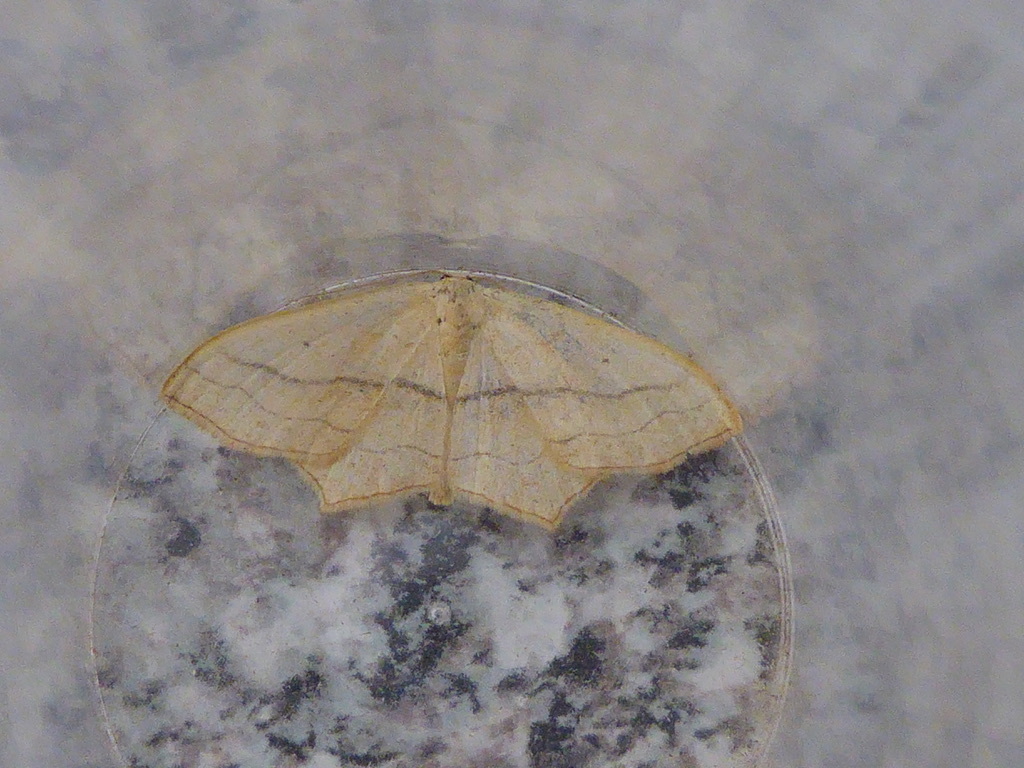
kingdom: Animalia
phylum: Arthropoda
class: Insecta
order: Lepidoptera
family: Geometridae
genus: Scopula
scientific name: Scopula imitaria
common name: Small blood-vein
